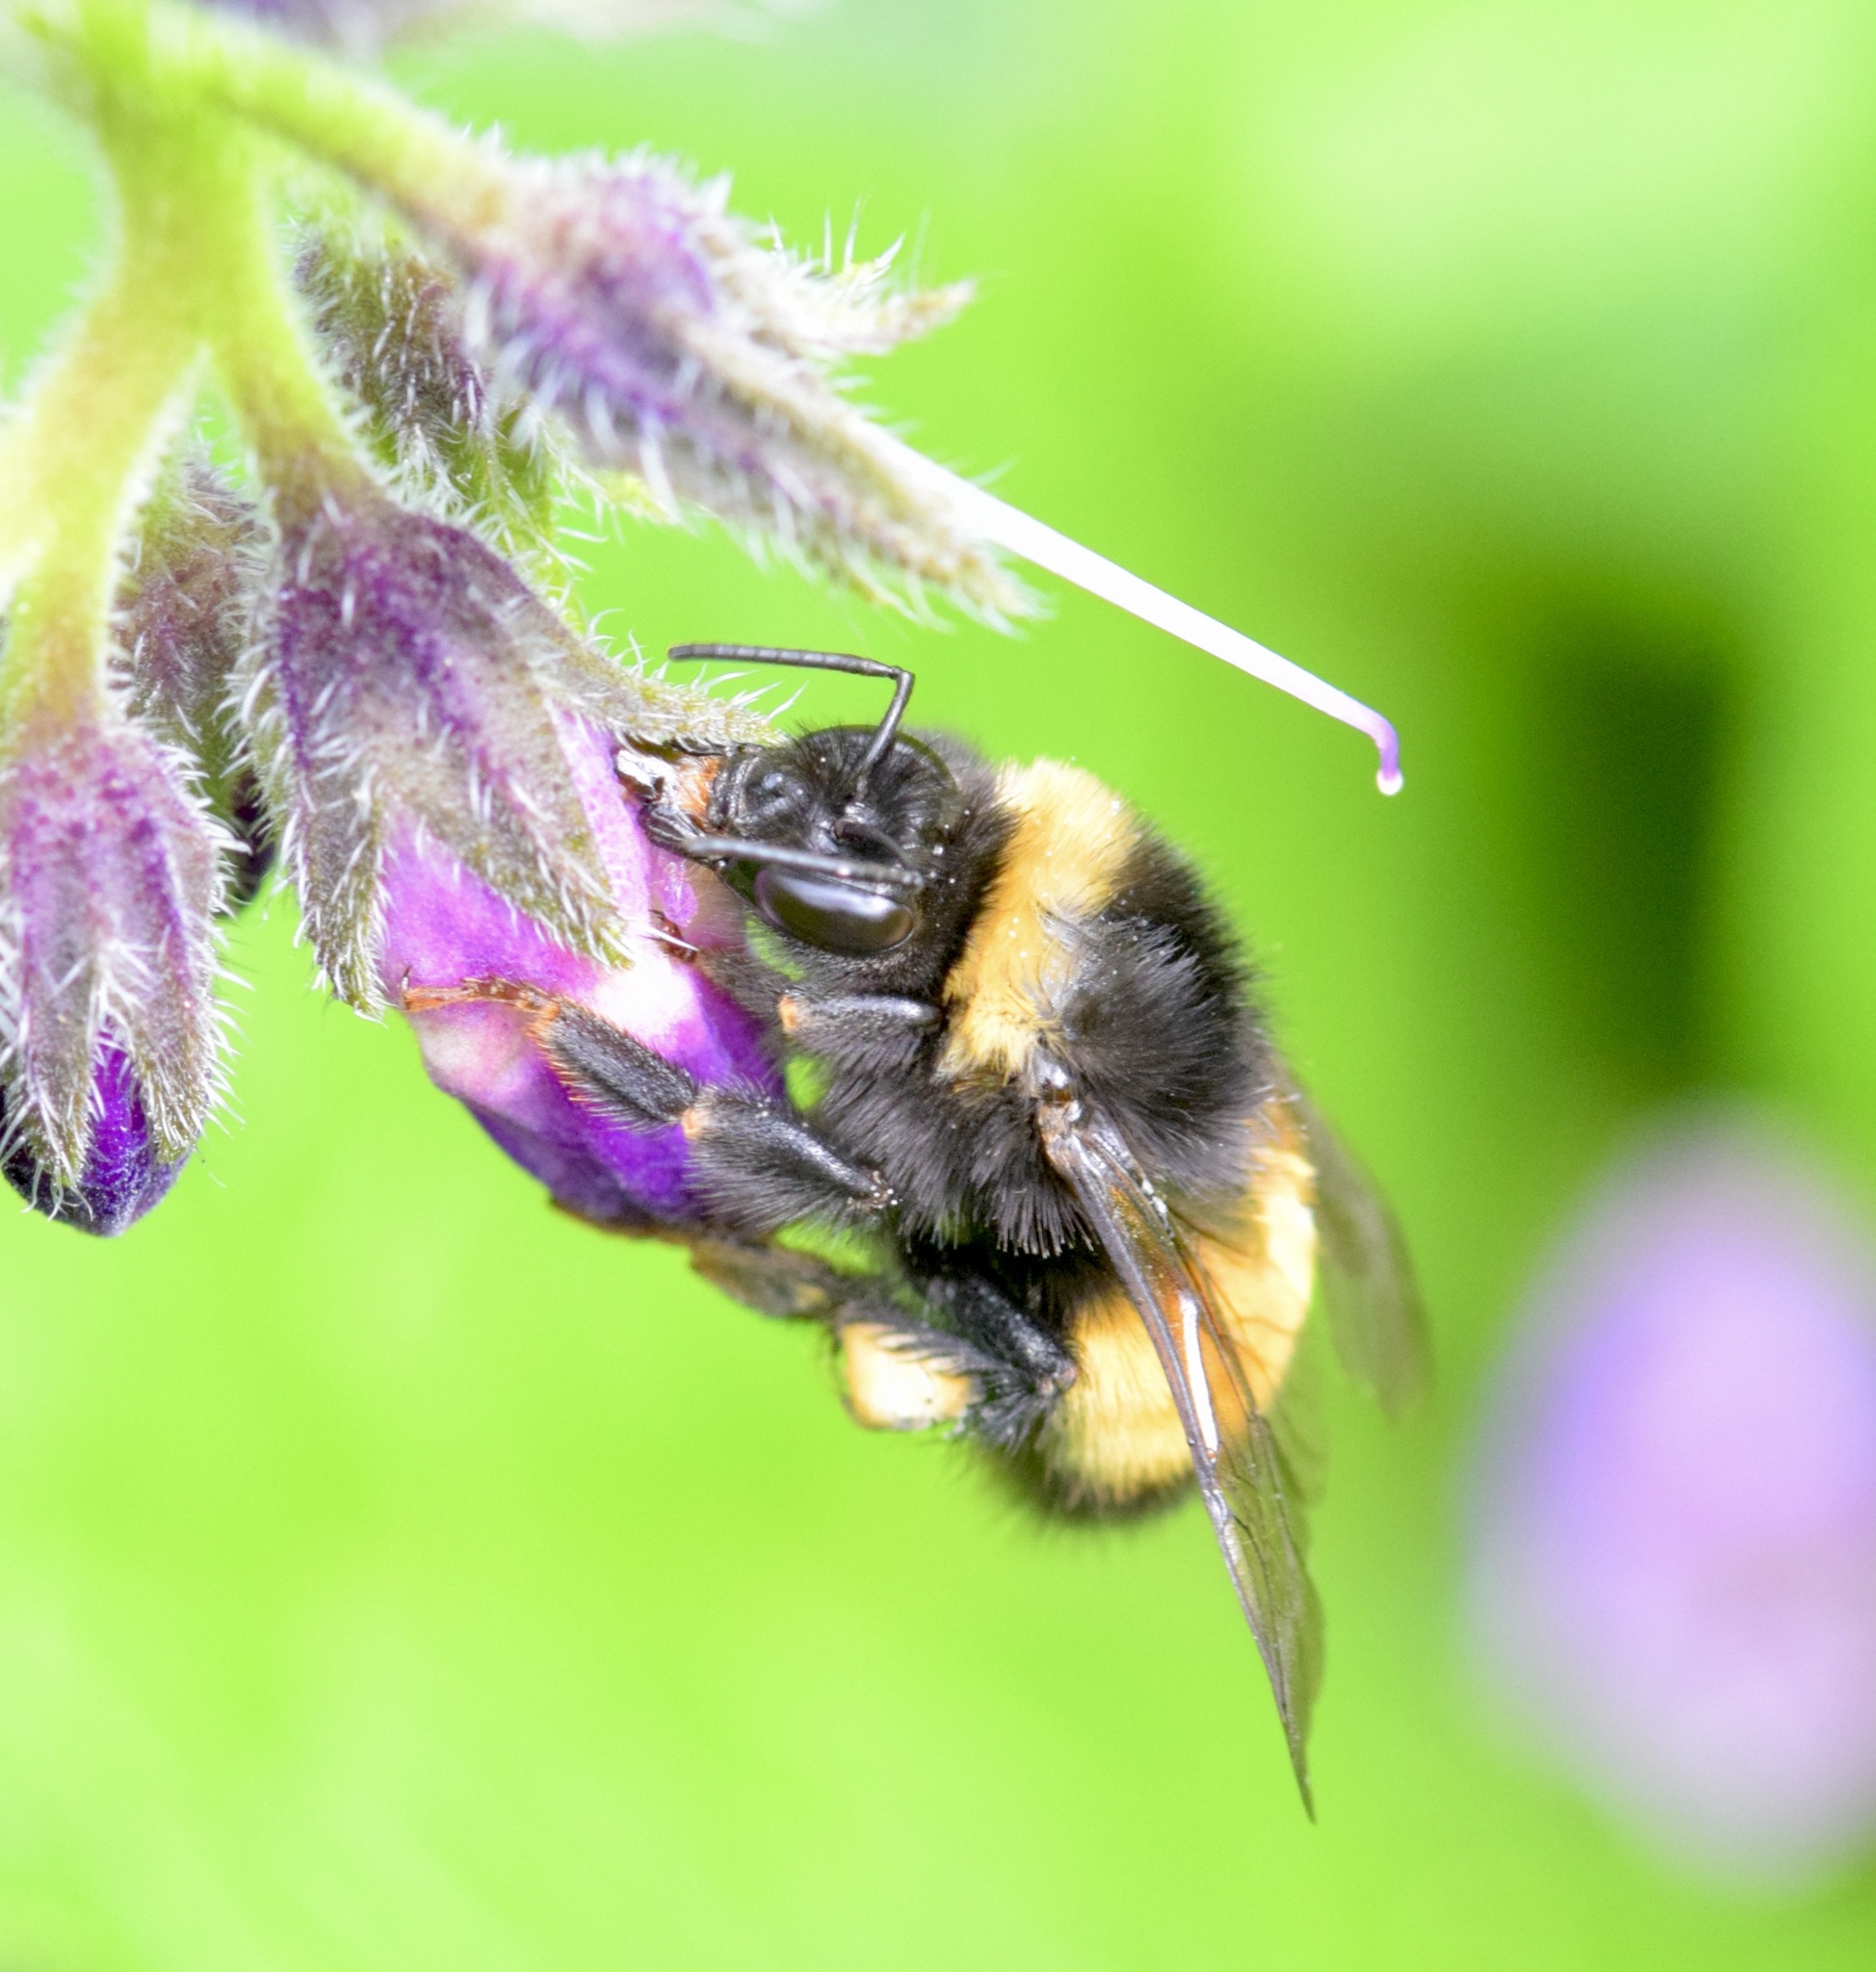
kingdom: Animalia
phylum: Arthropoda
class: Insecta
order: Hymenoptera
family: Apidae
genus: Bombus
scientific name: Bombus terricola
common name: Yellow-banded bumble bee
